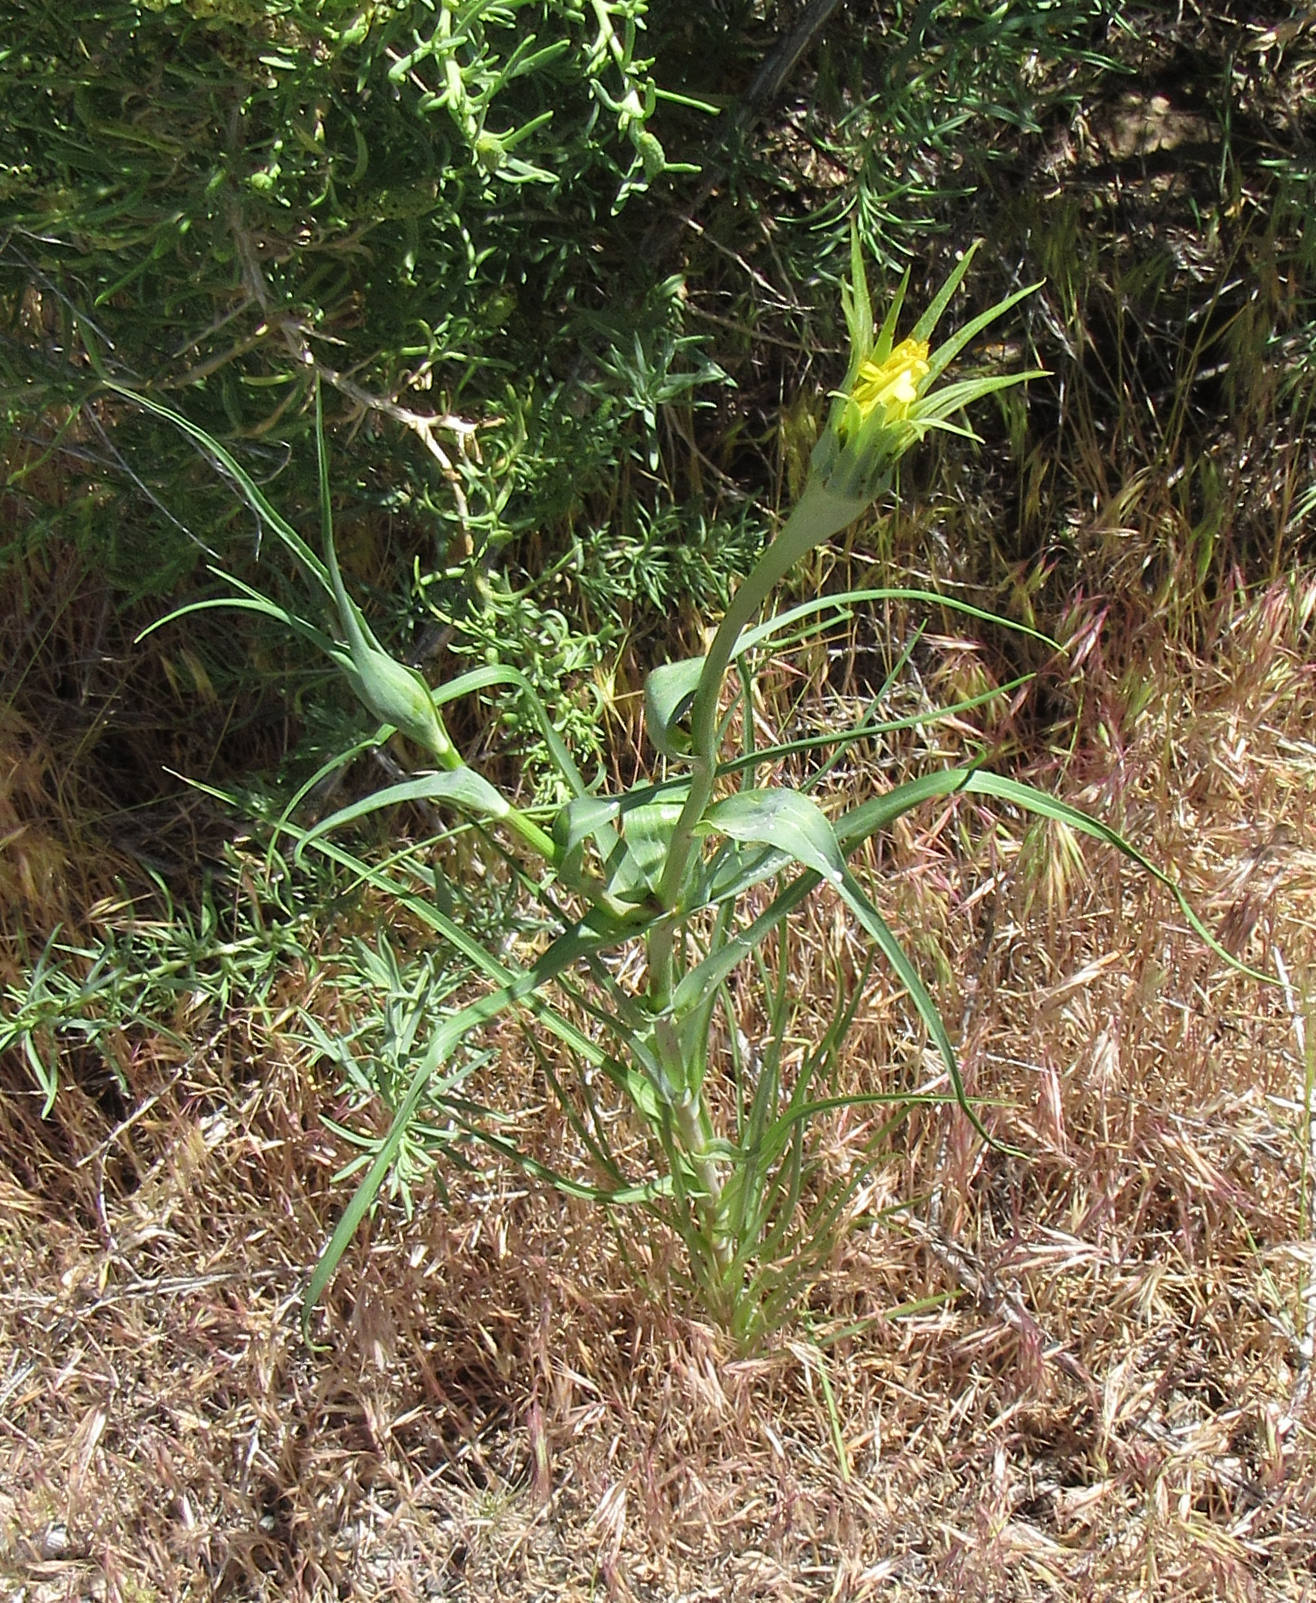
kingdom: Plantae
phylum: Tracheophyta
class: Magnoliopsida
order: Asterales
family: Asteraceae
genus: Tragopogon
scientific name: Tragopogon dubius
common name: Yellow salsify
